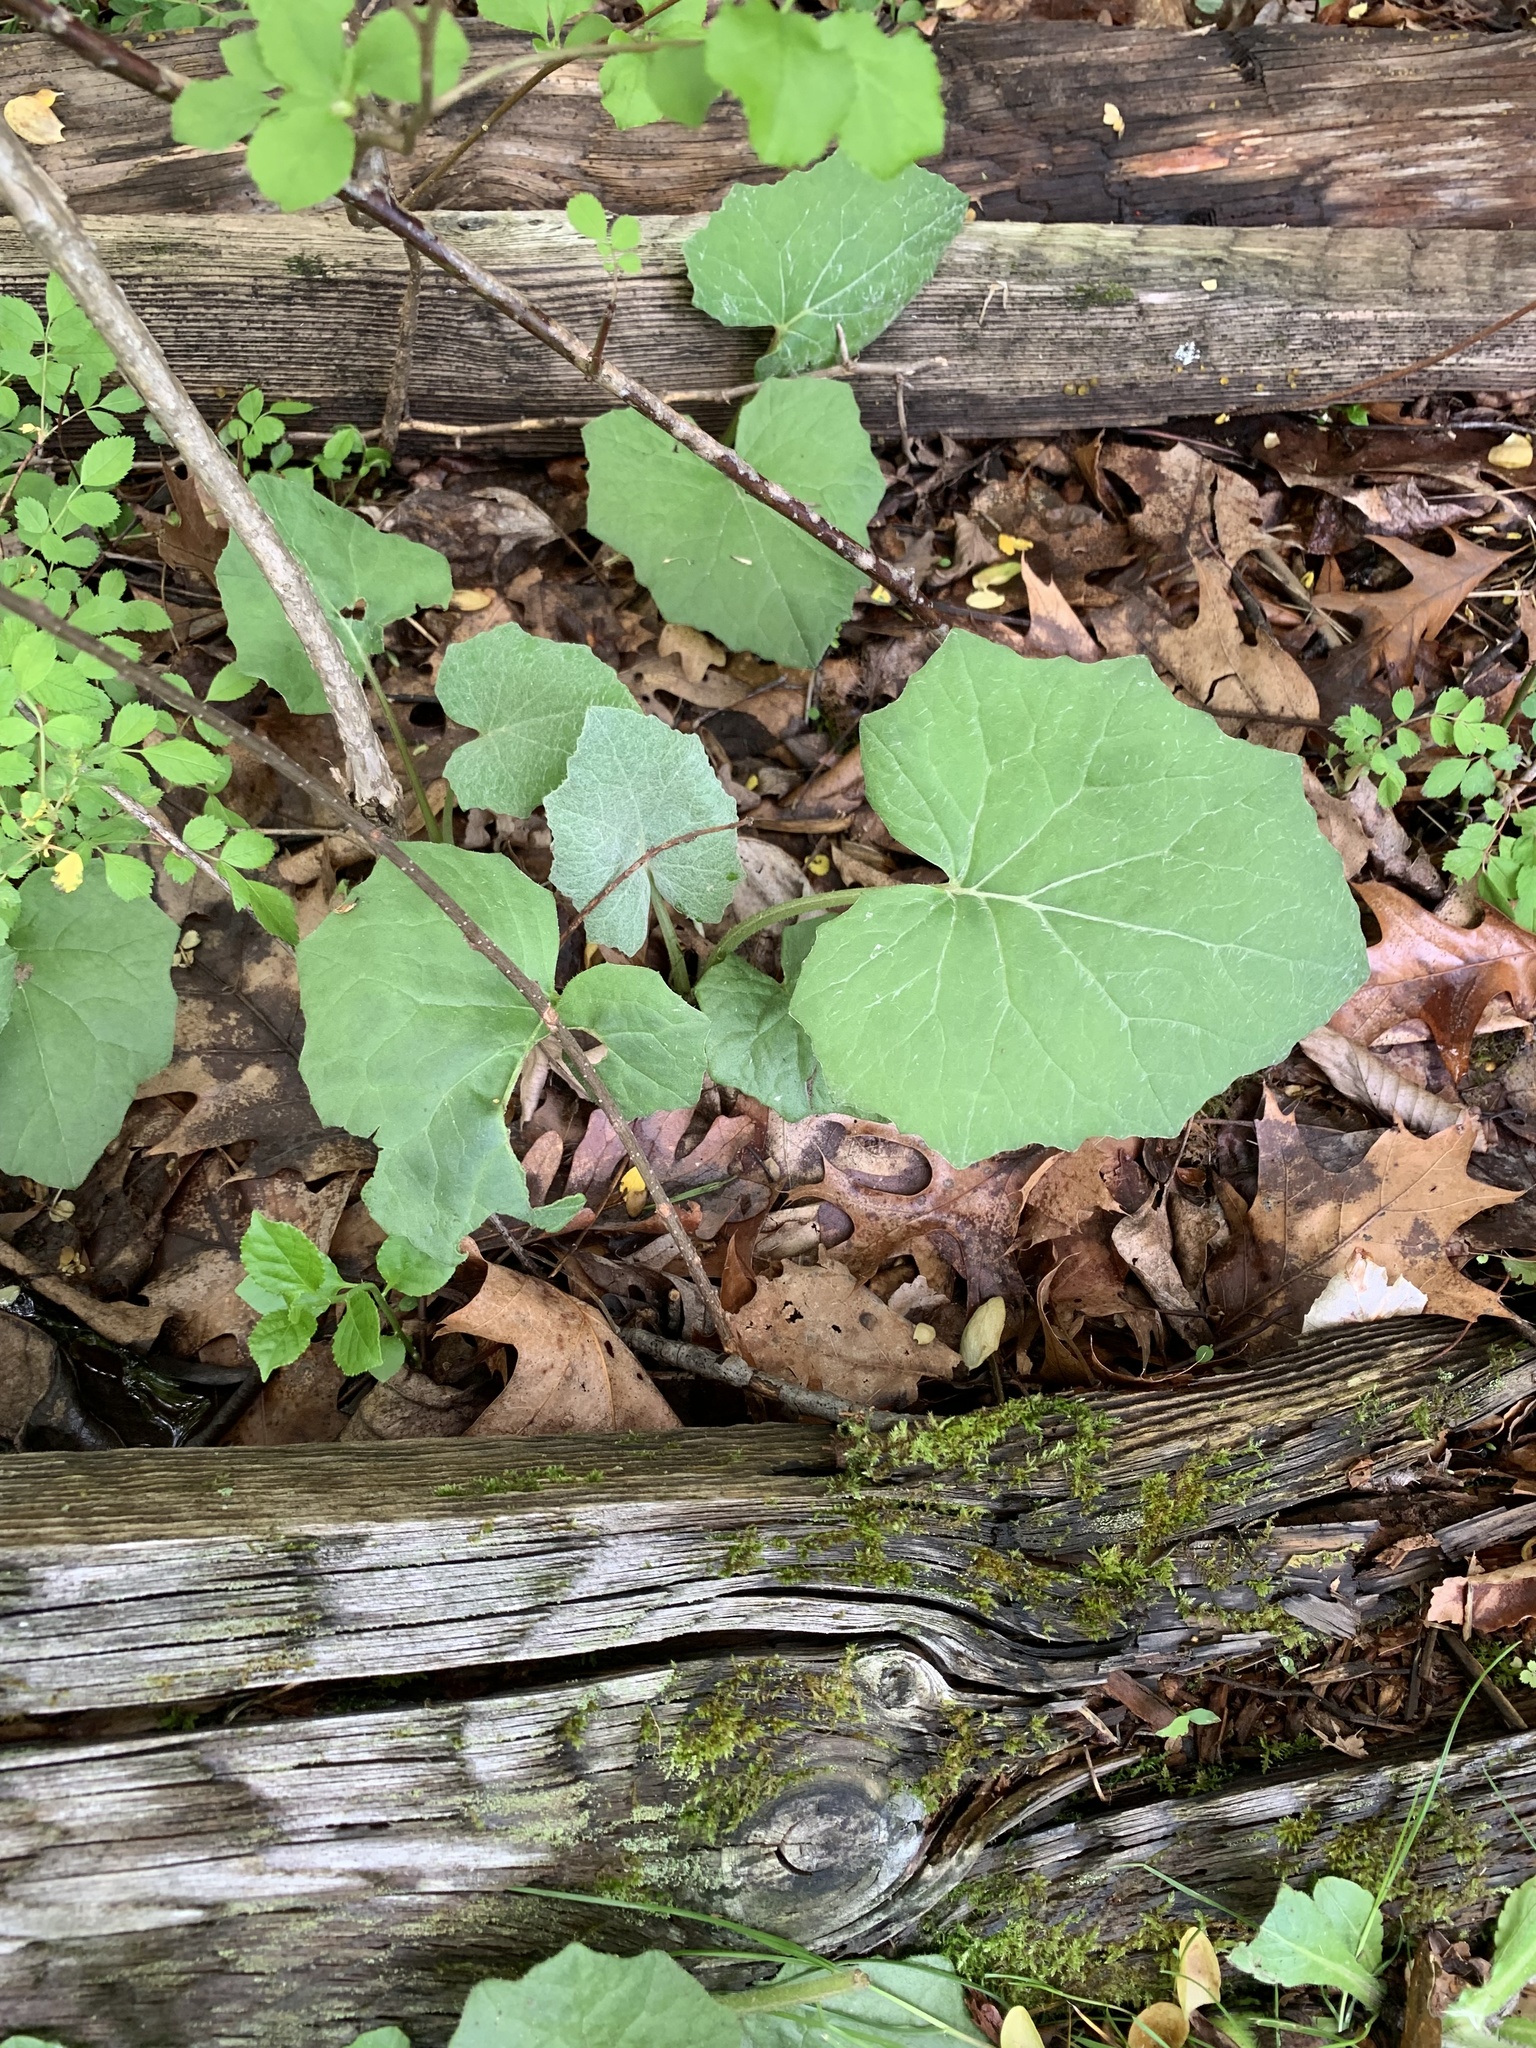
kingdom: Plantae
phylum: Tracheophyta
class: Magnoliopsida
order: Asterales
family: Asteraceae
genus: Tussilago
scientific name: Tussilago farfara
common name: Coltsfoot
